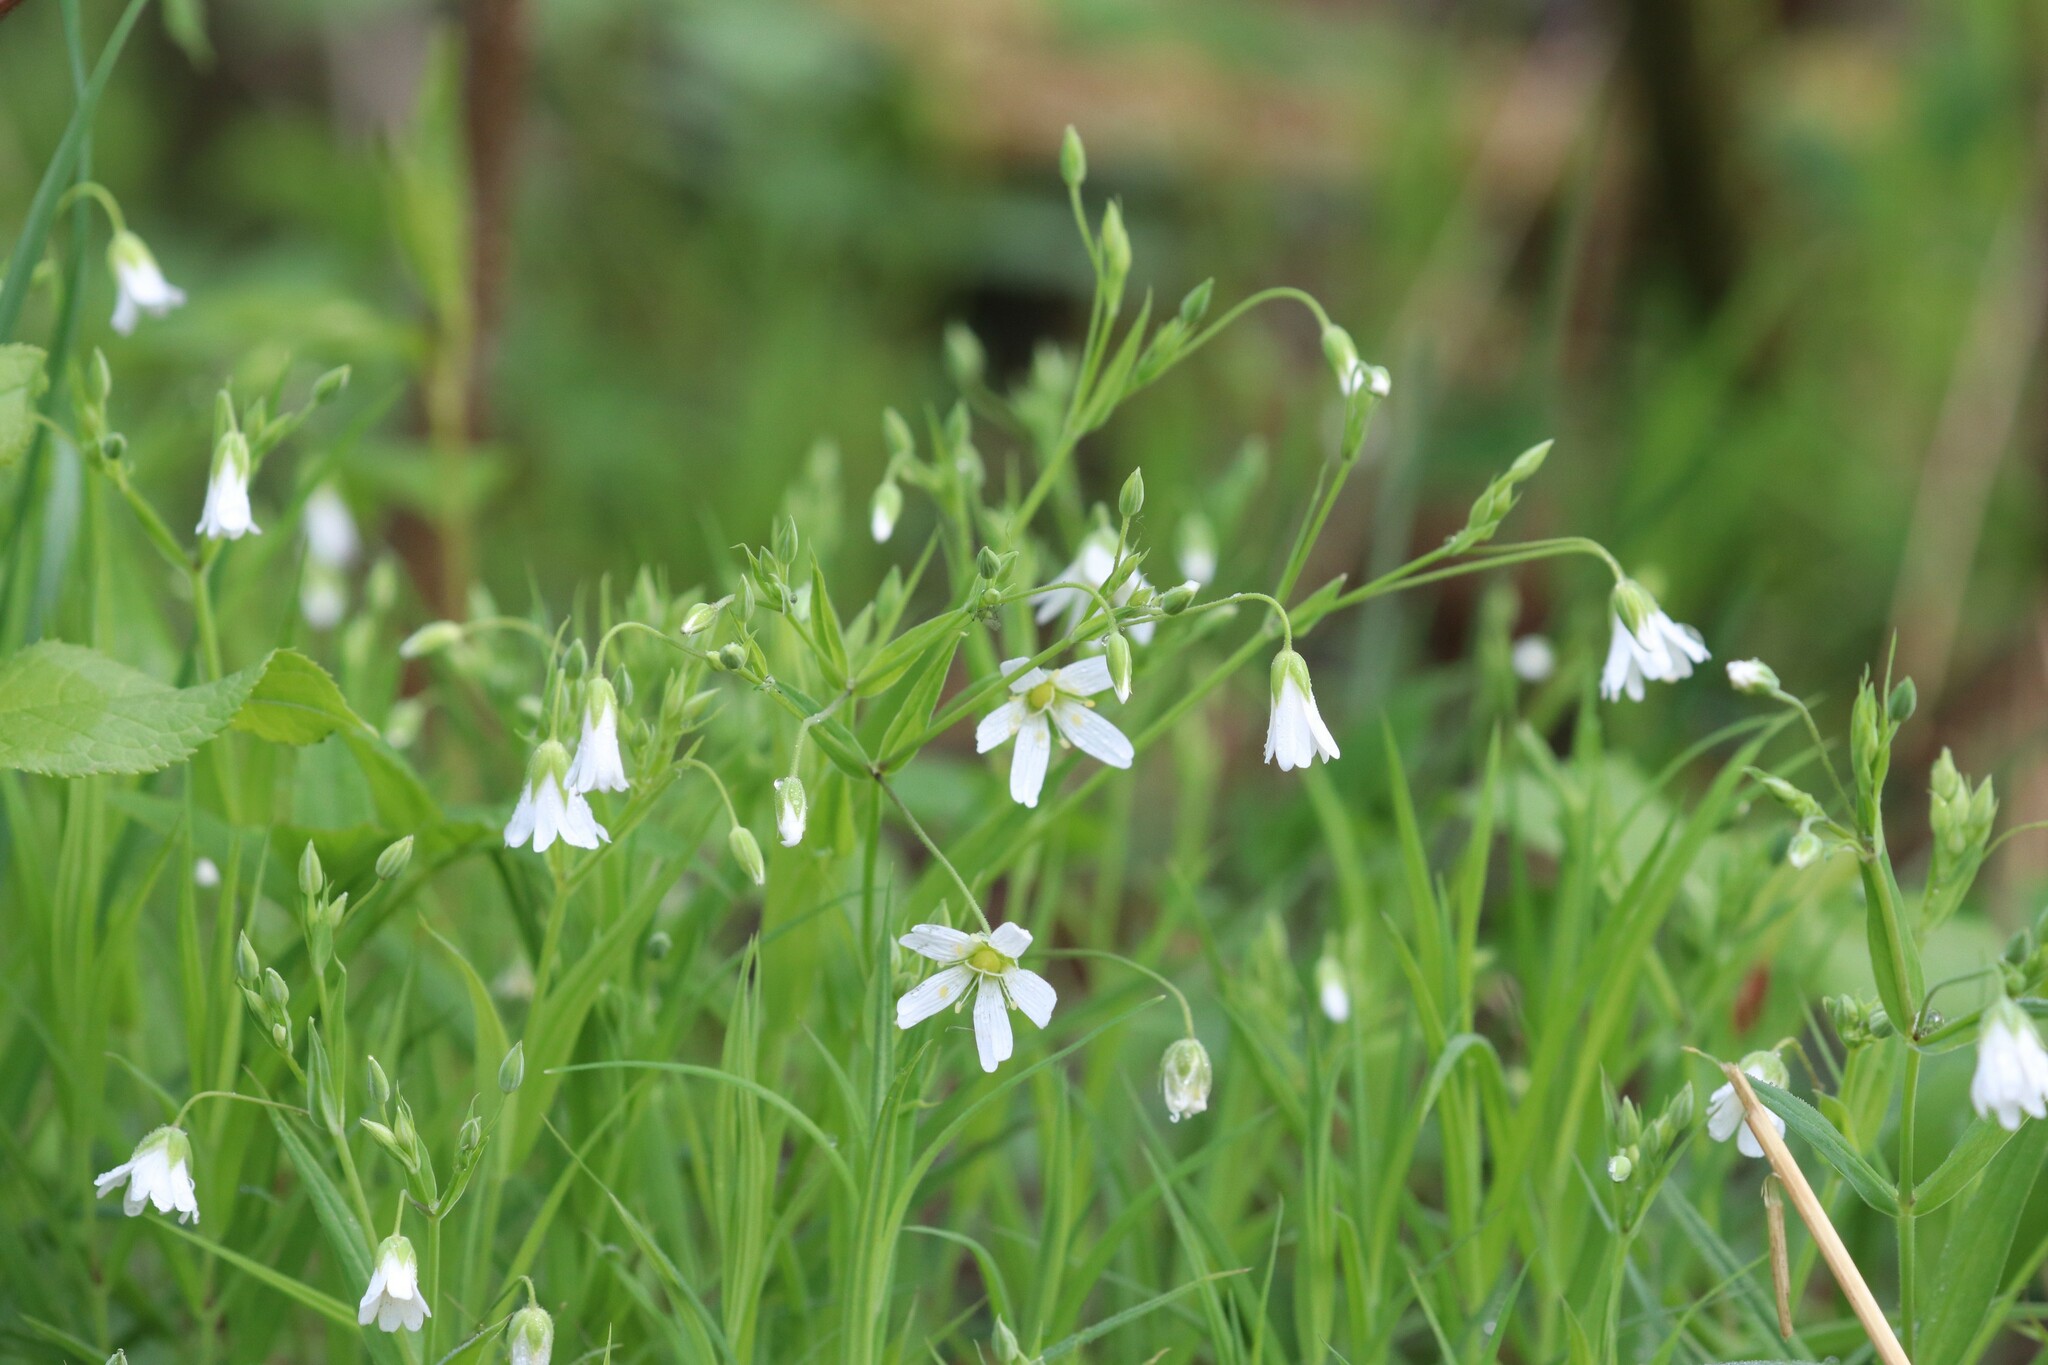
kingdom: Plantae
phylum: Tracheophyta
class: Magnoliopsida
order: Caryophyllales
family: Caryophyllaceae
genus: Rabelera
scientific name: Rabelera holostea
